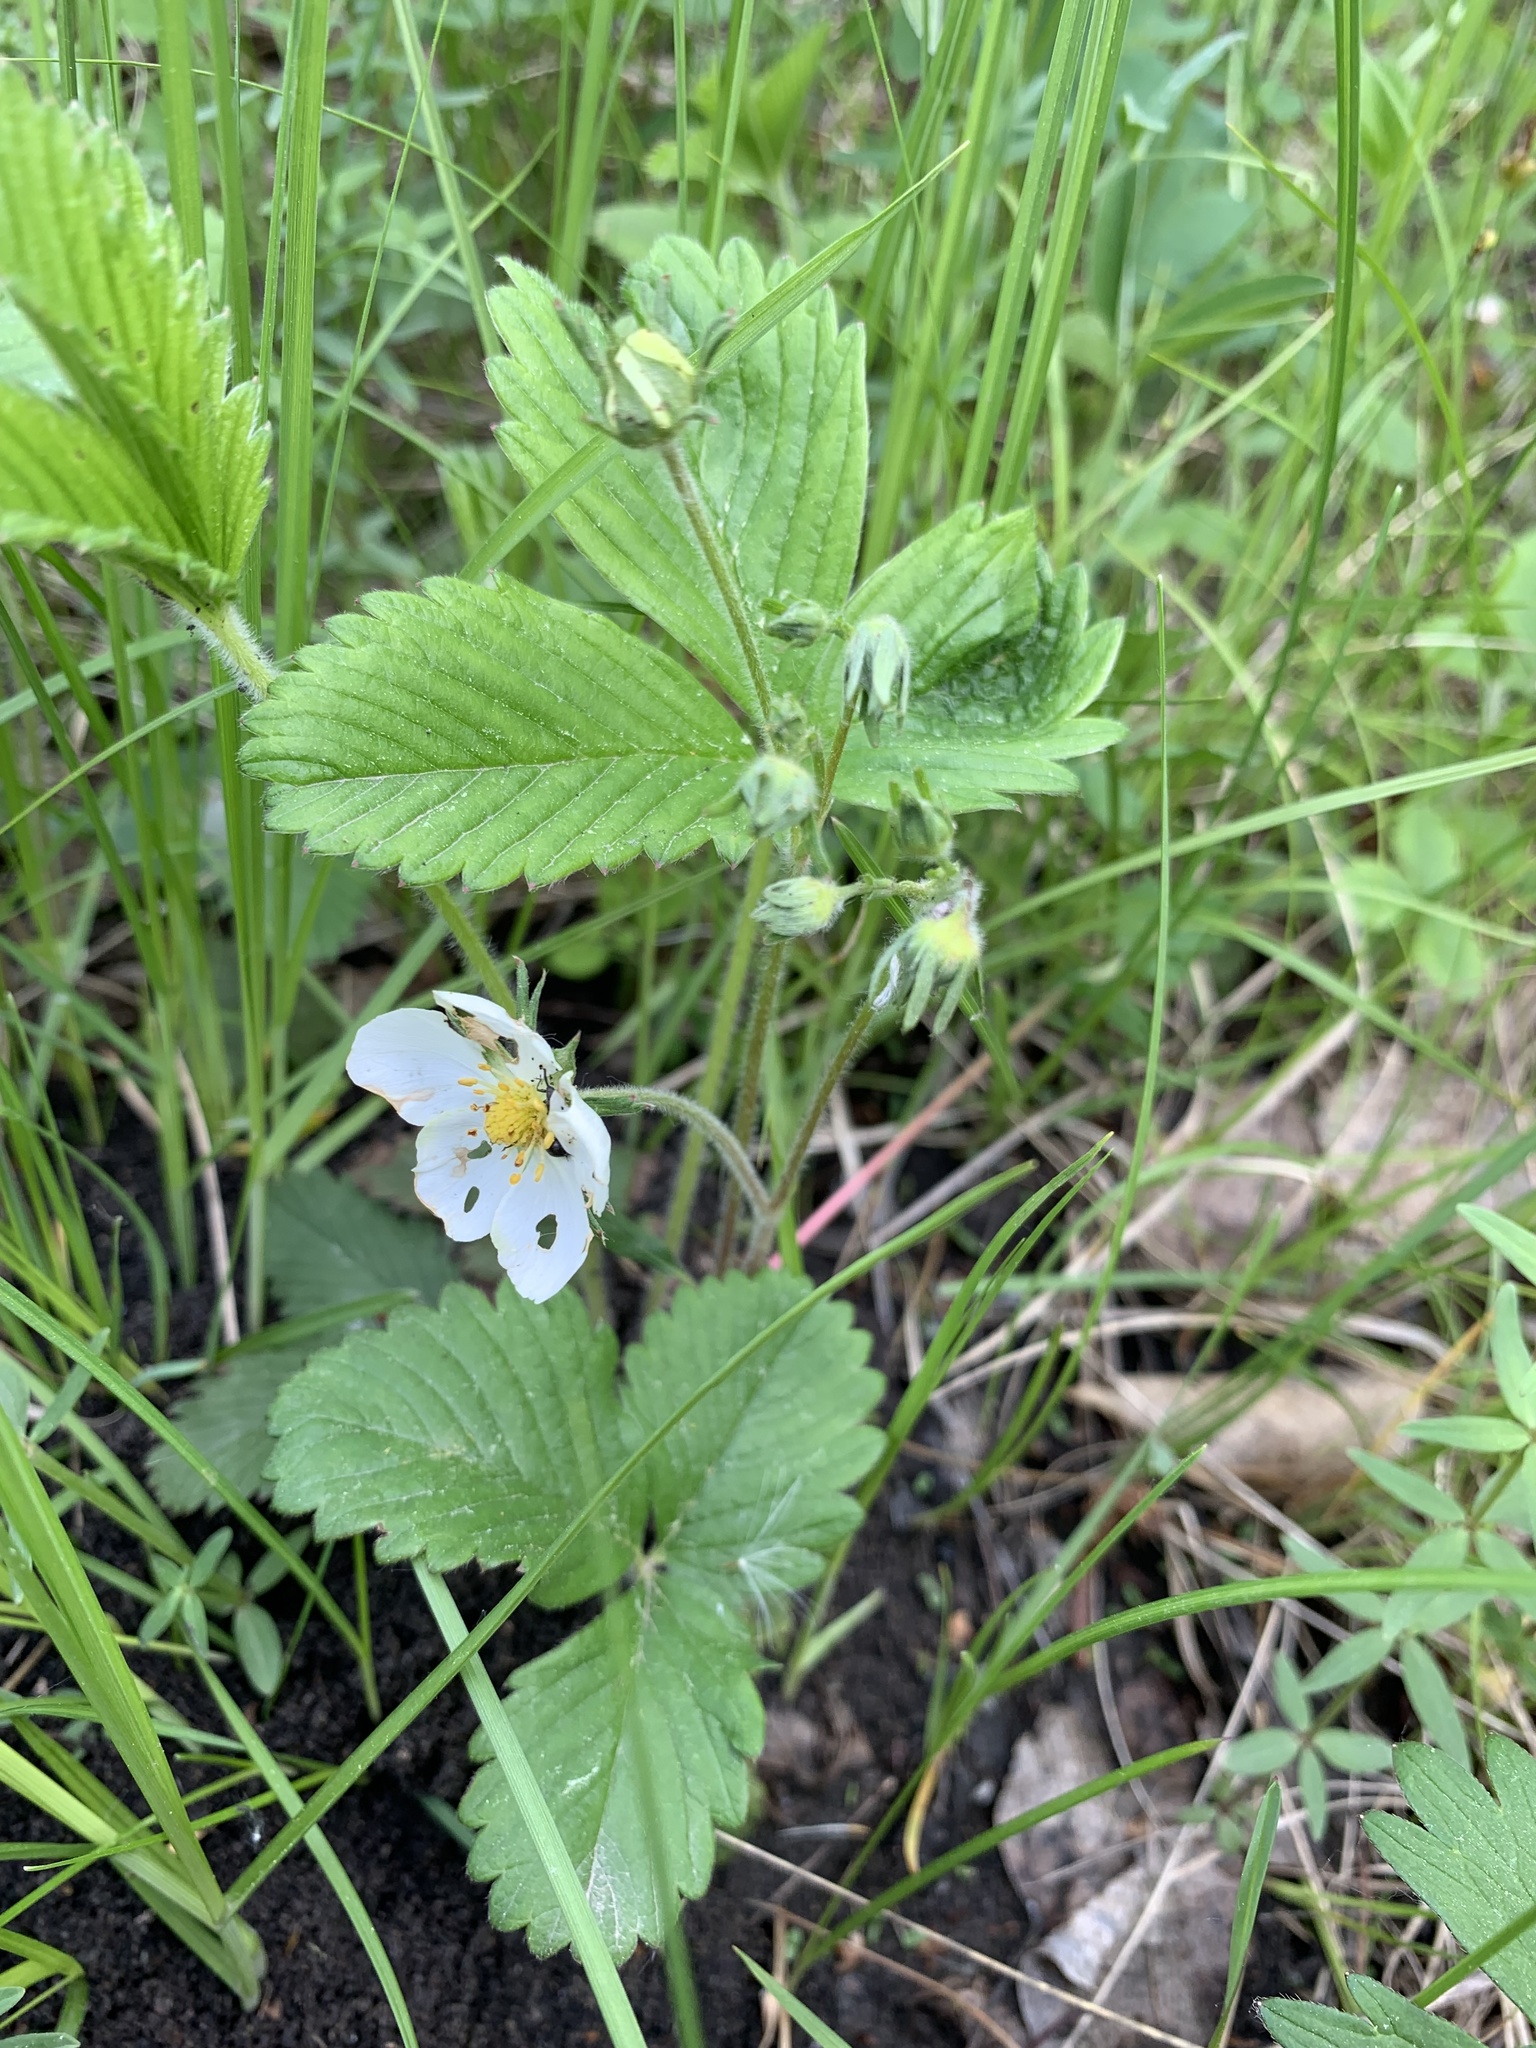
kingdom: Plantae
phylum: Tracheophyta
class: Magnoliopsida
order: Rosales
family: Rosaceae
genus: Fragaria
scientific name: Fragaria viridis
